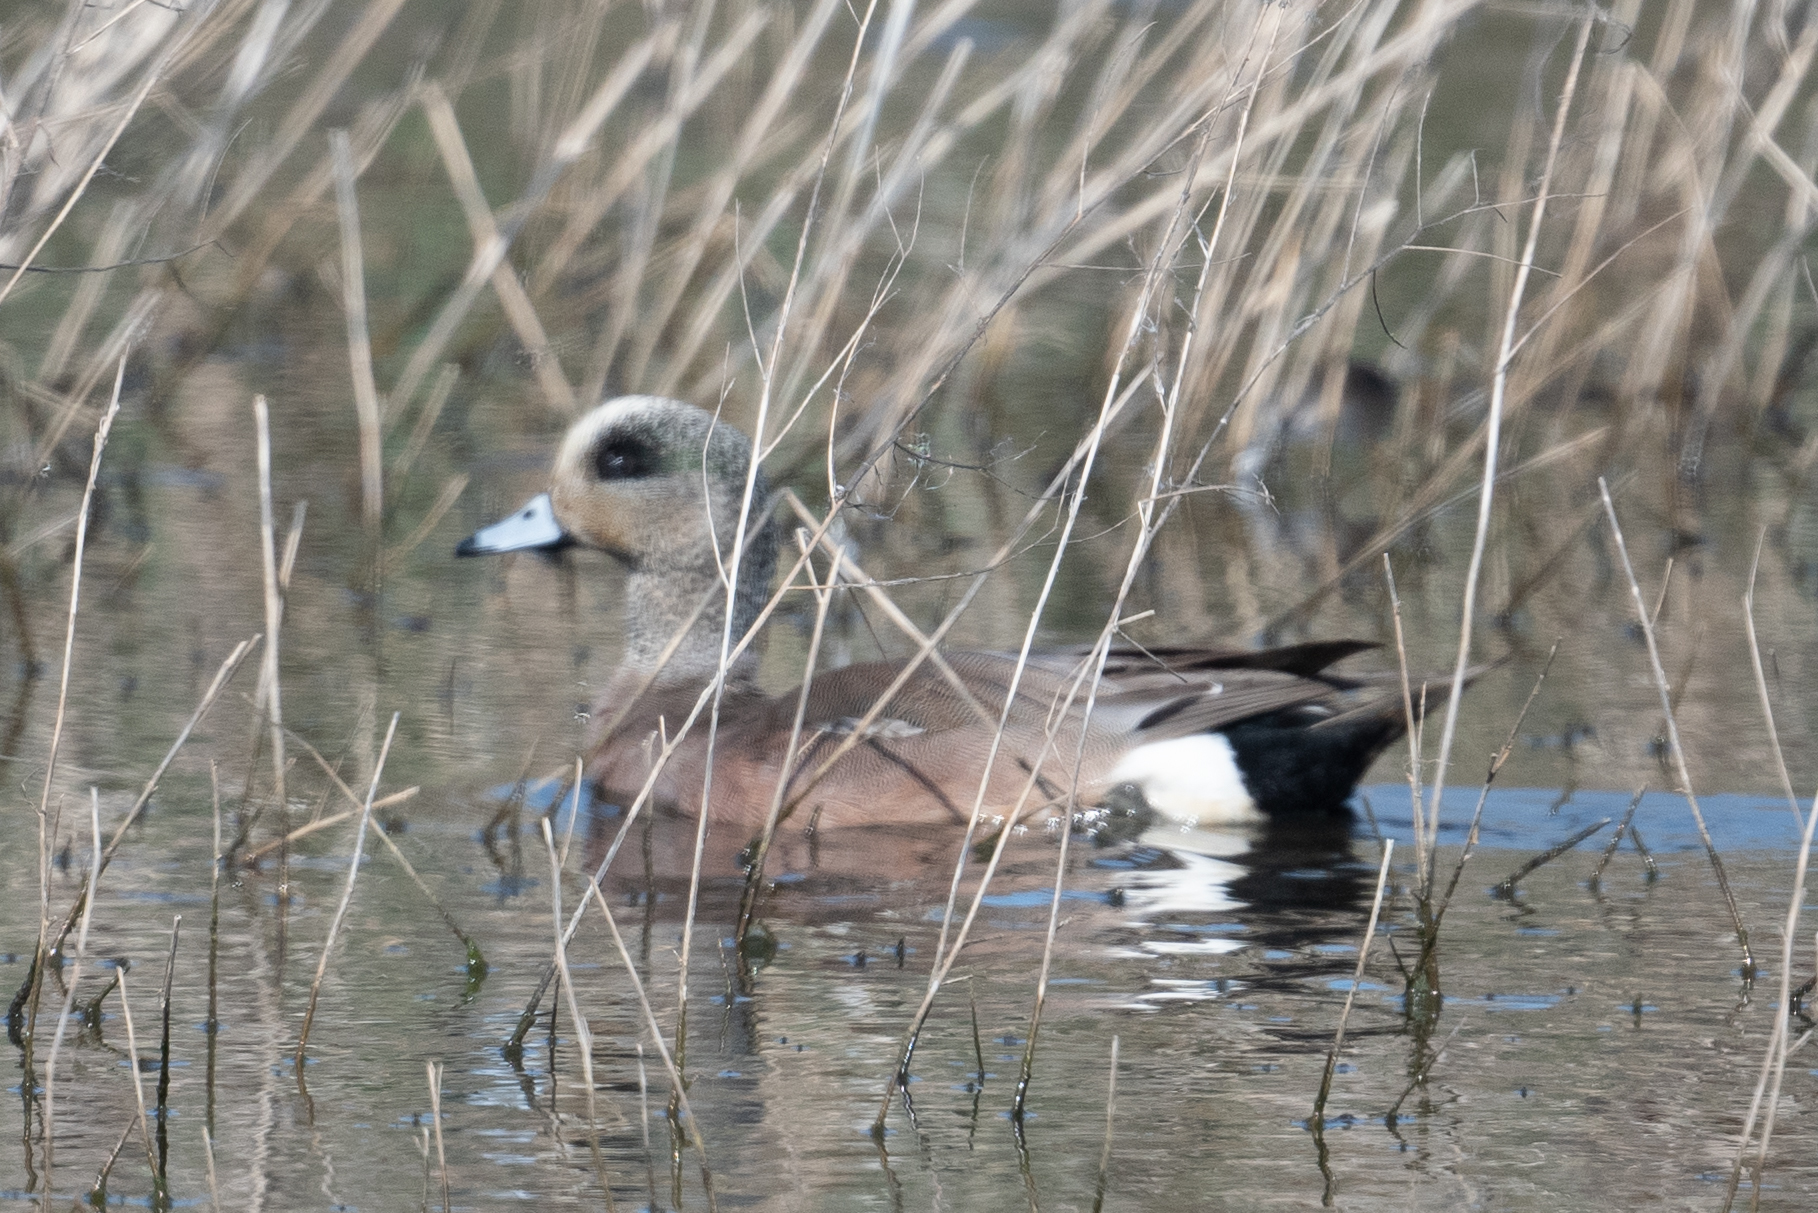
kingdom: Animalia
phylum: Chordata
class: Aves
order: Anseriformes
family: Anatidae
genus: Mareca
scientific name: Mareca americana
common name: American wigeon
